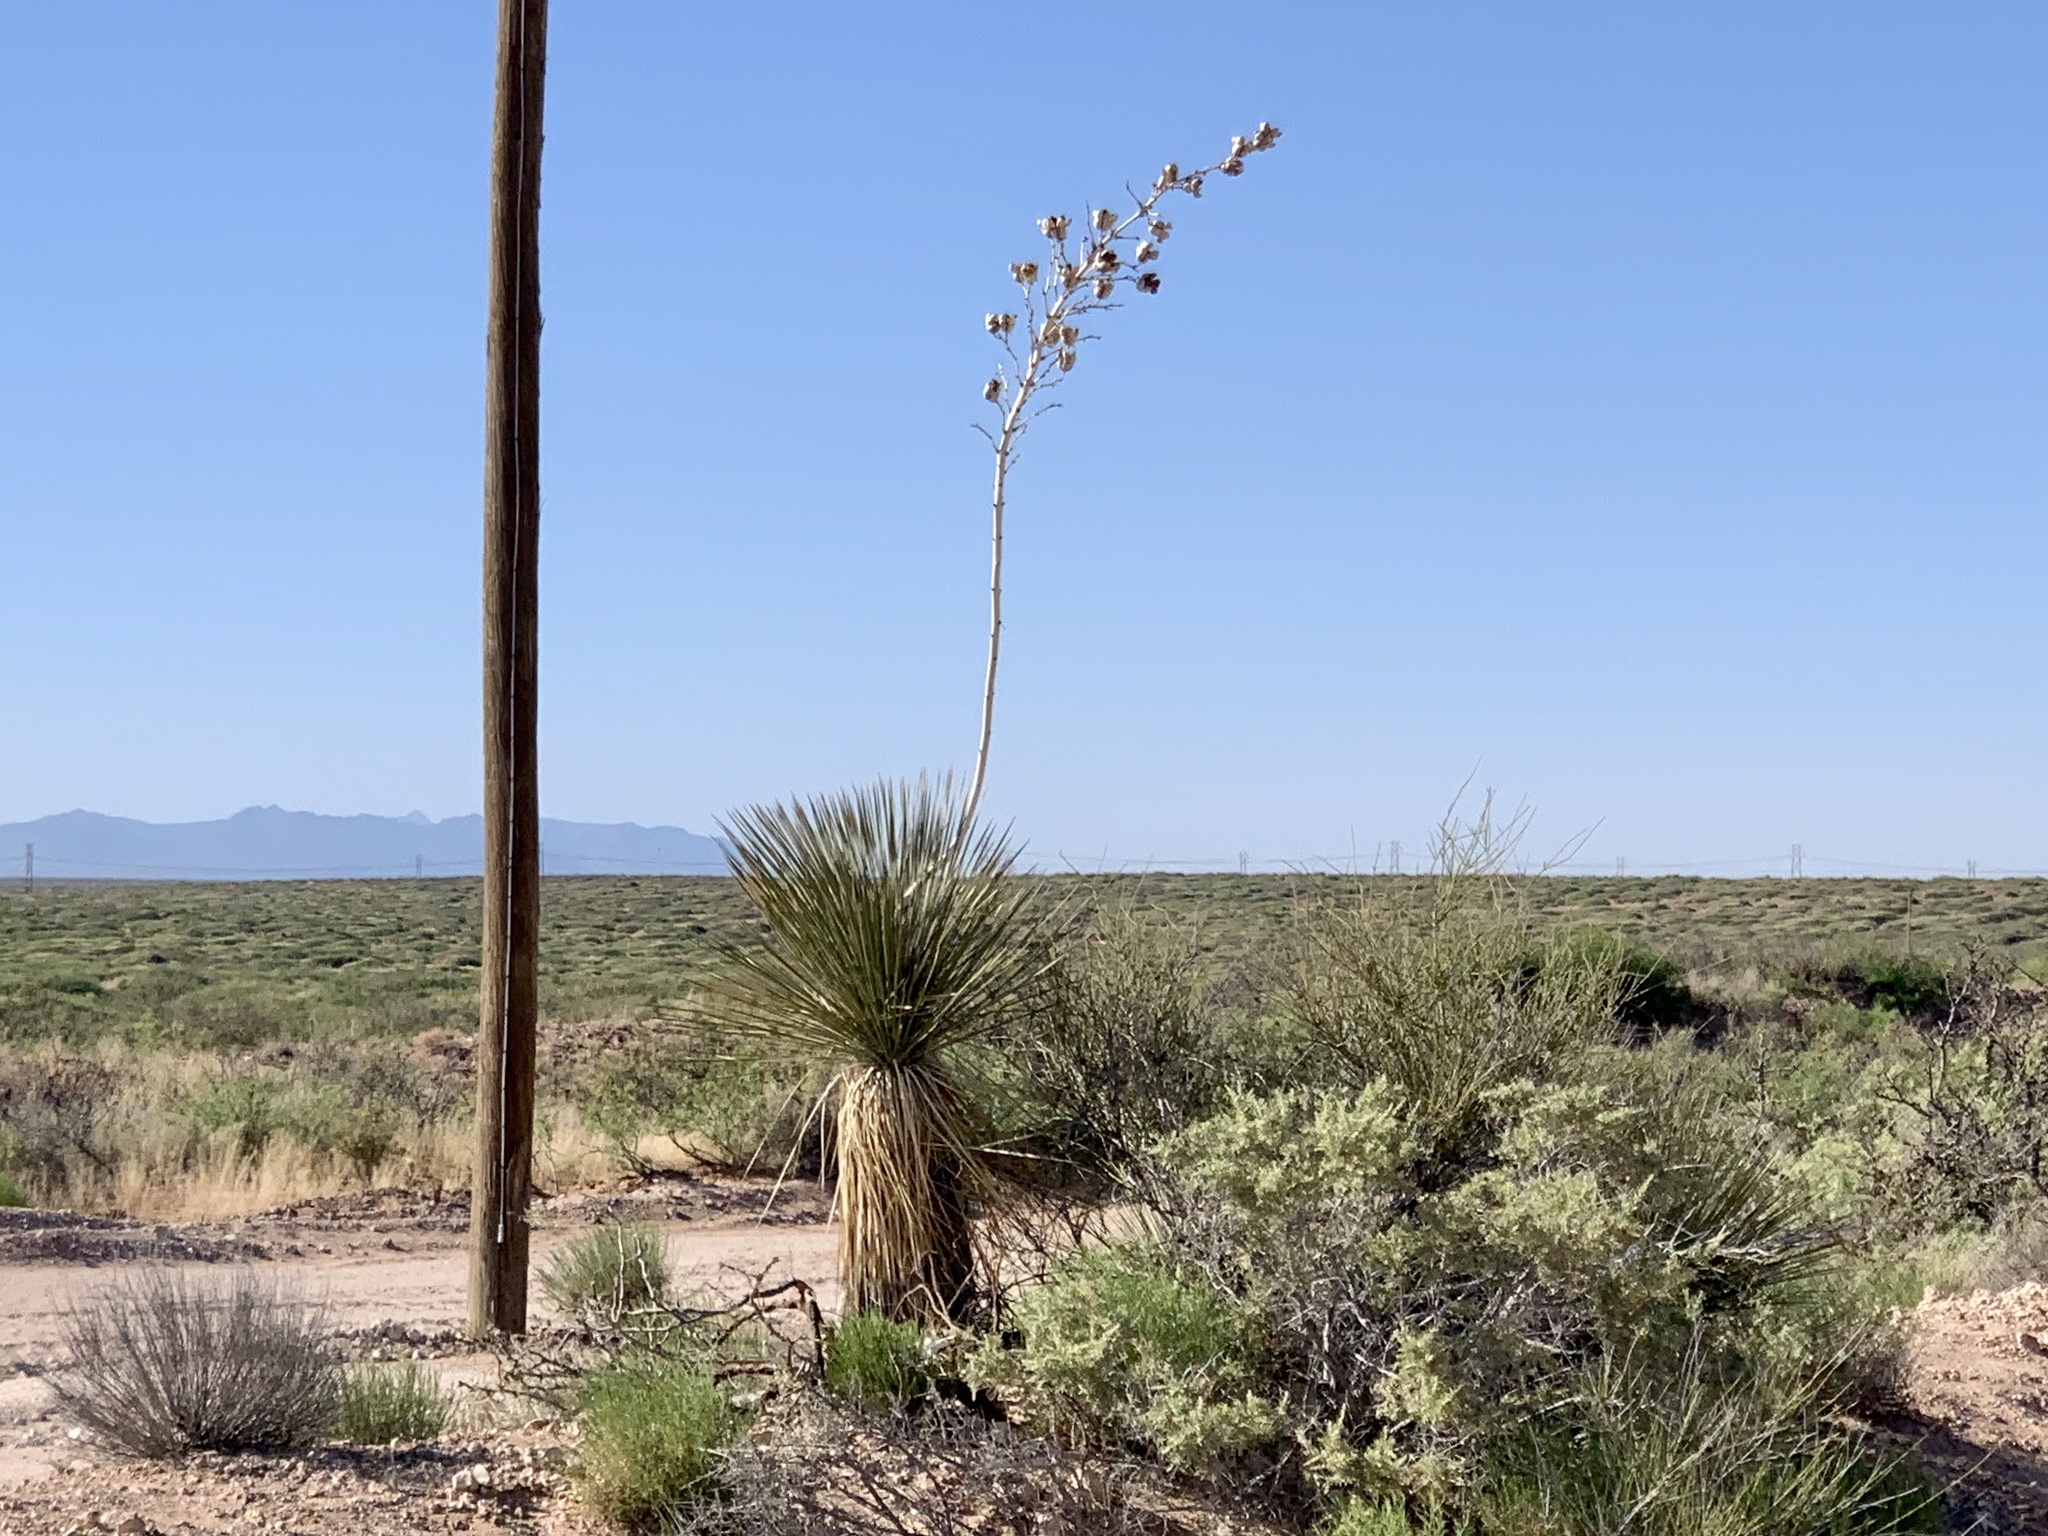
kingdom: Plantae
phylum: Tracheophyta
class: Liliopsida
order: Asparagales
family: Asparagaceae
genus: Yucca
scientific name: Yucca elata
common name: Palmella
